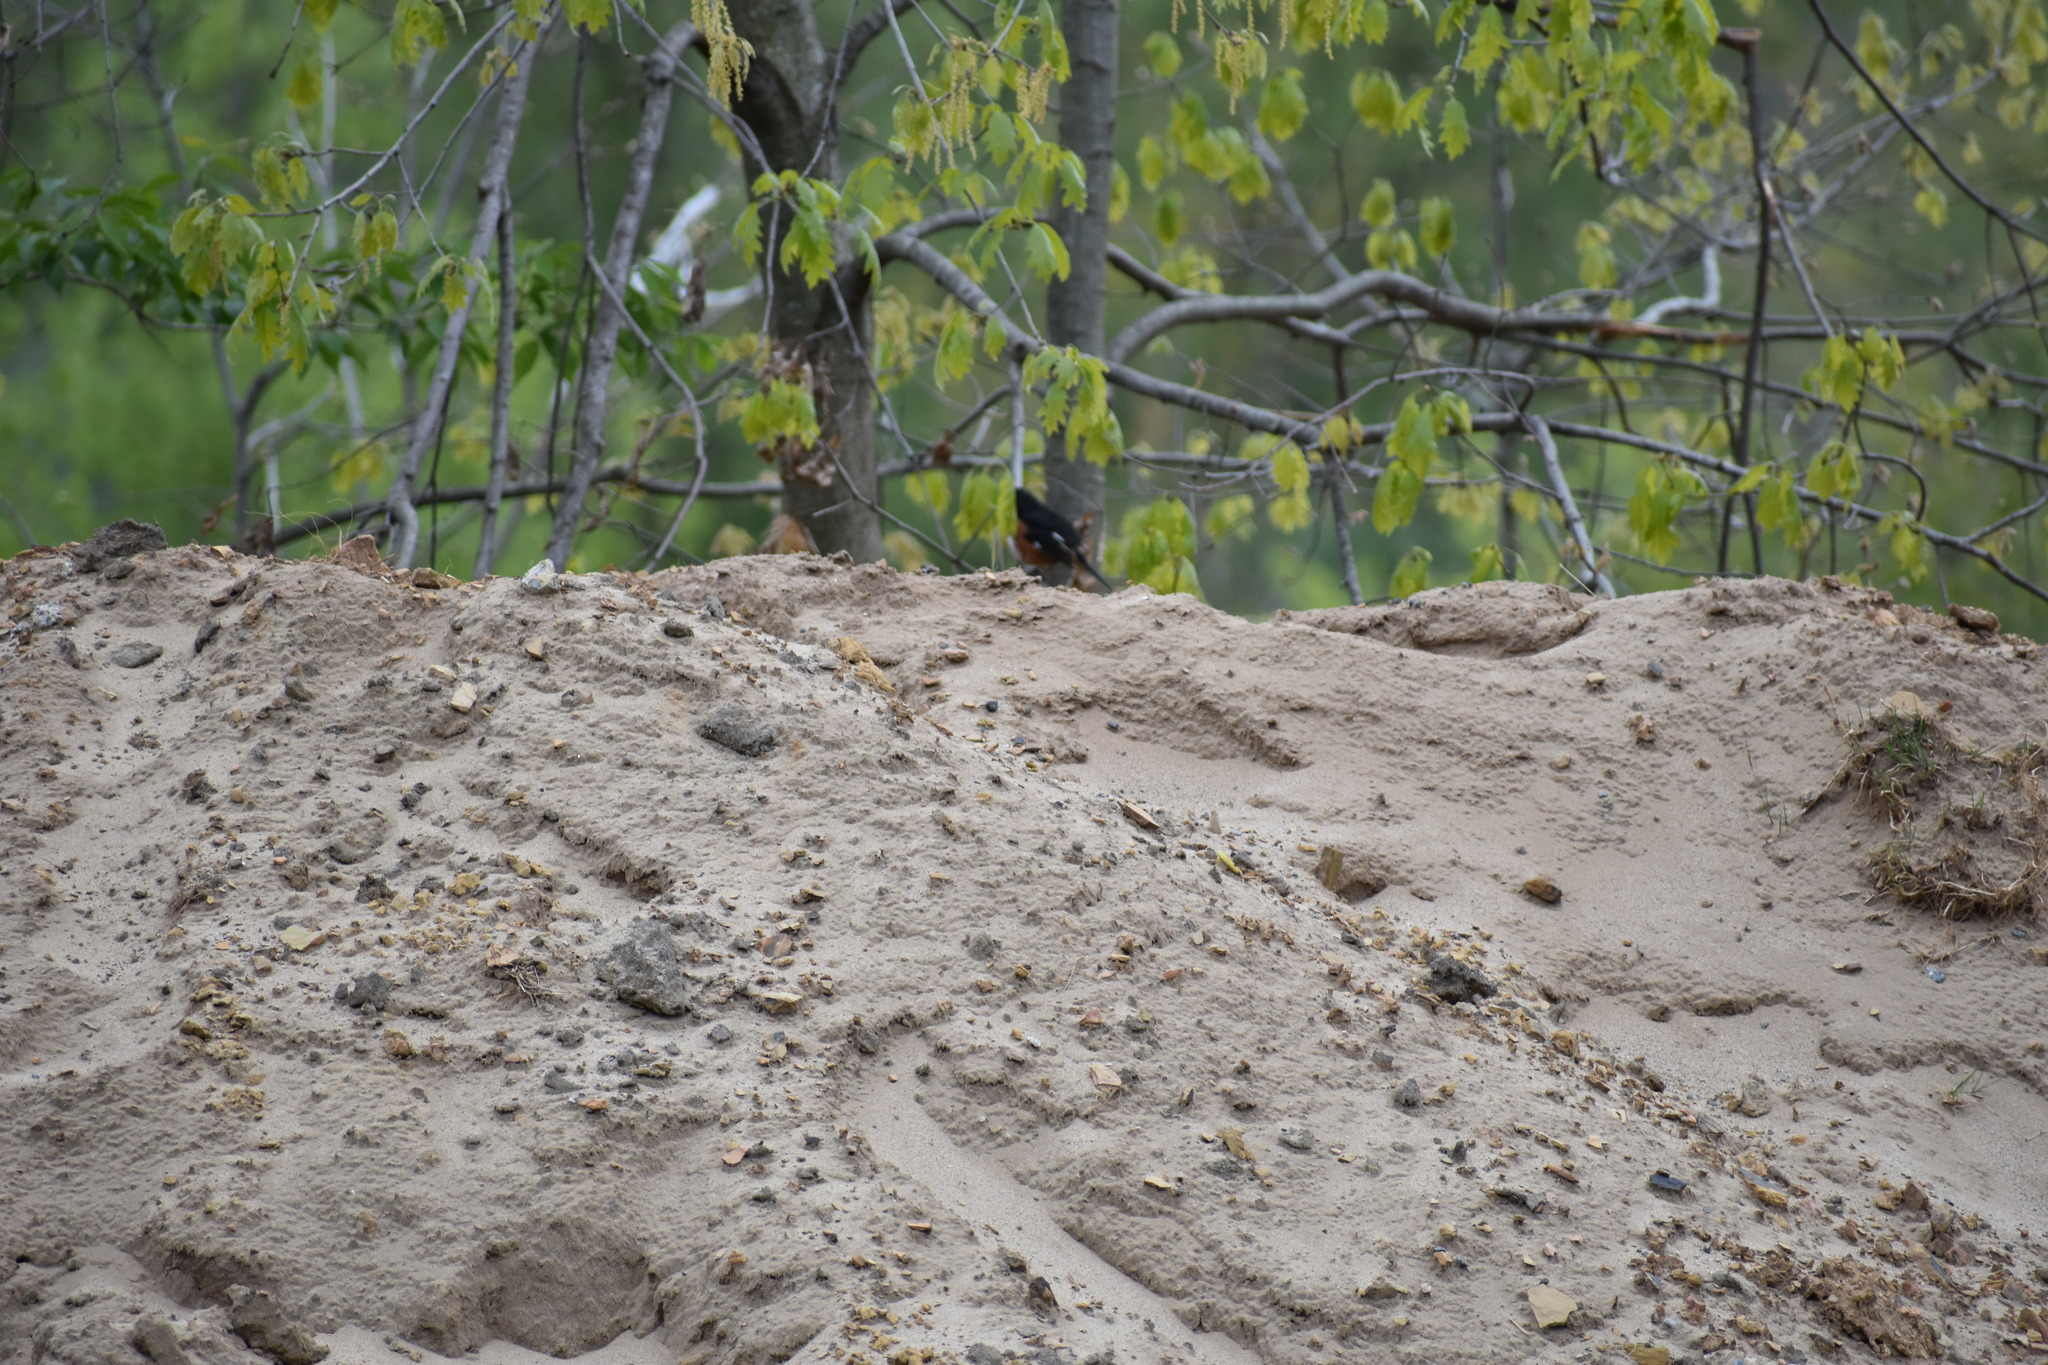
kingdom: Animalia
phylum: Chordata
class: Aves
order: Passeriformes
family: Passerellidae
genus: Pipilo
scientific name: Pipilo erythrophthalmus
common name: Eastern towhee
